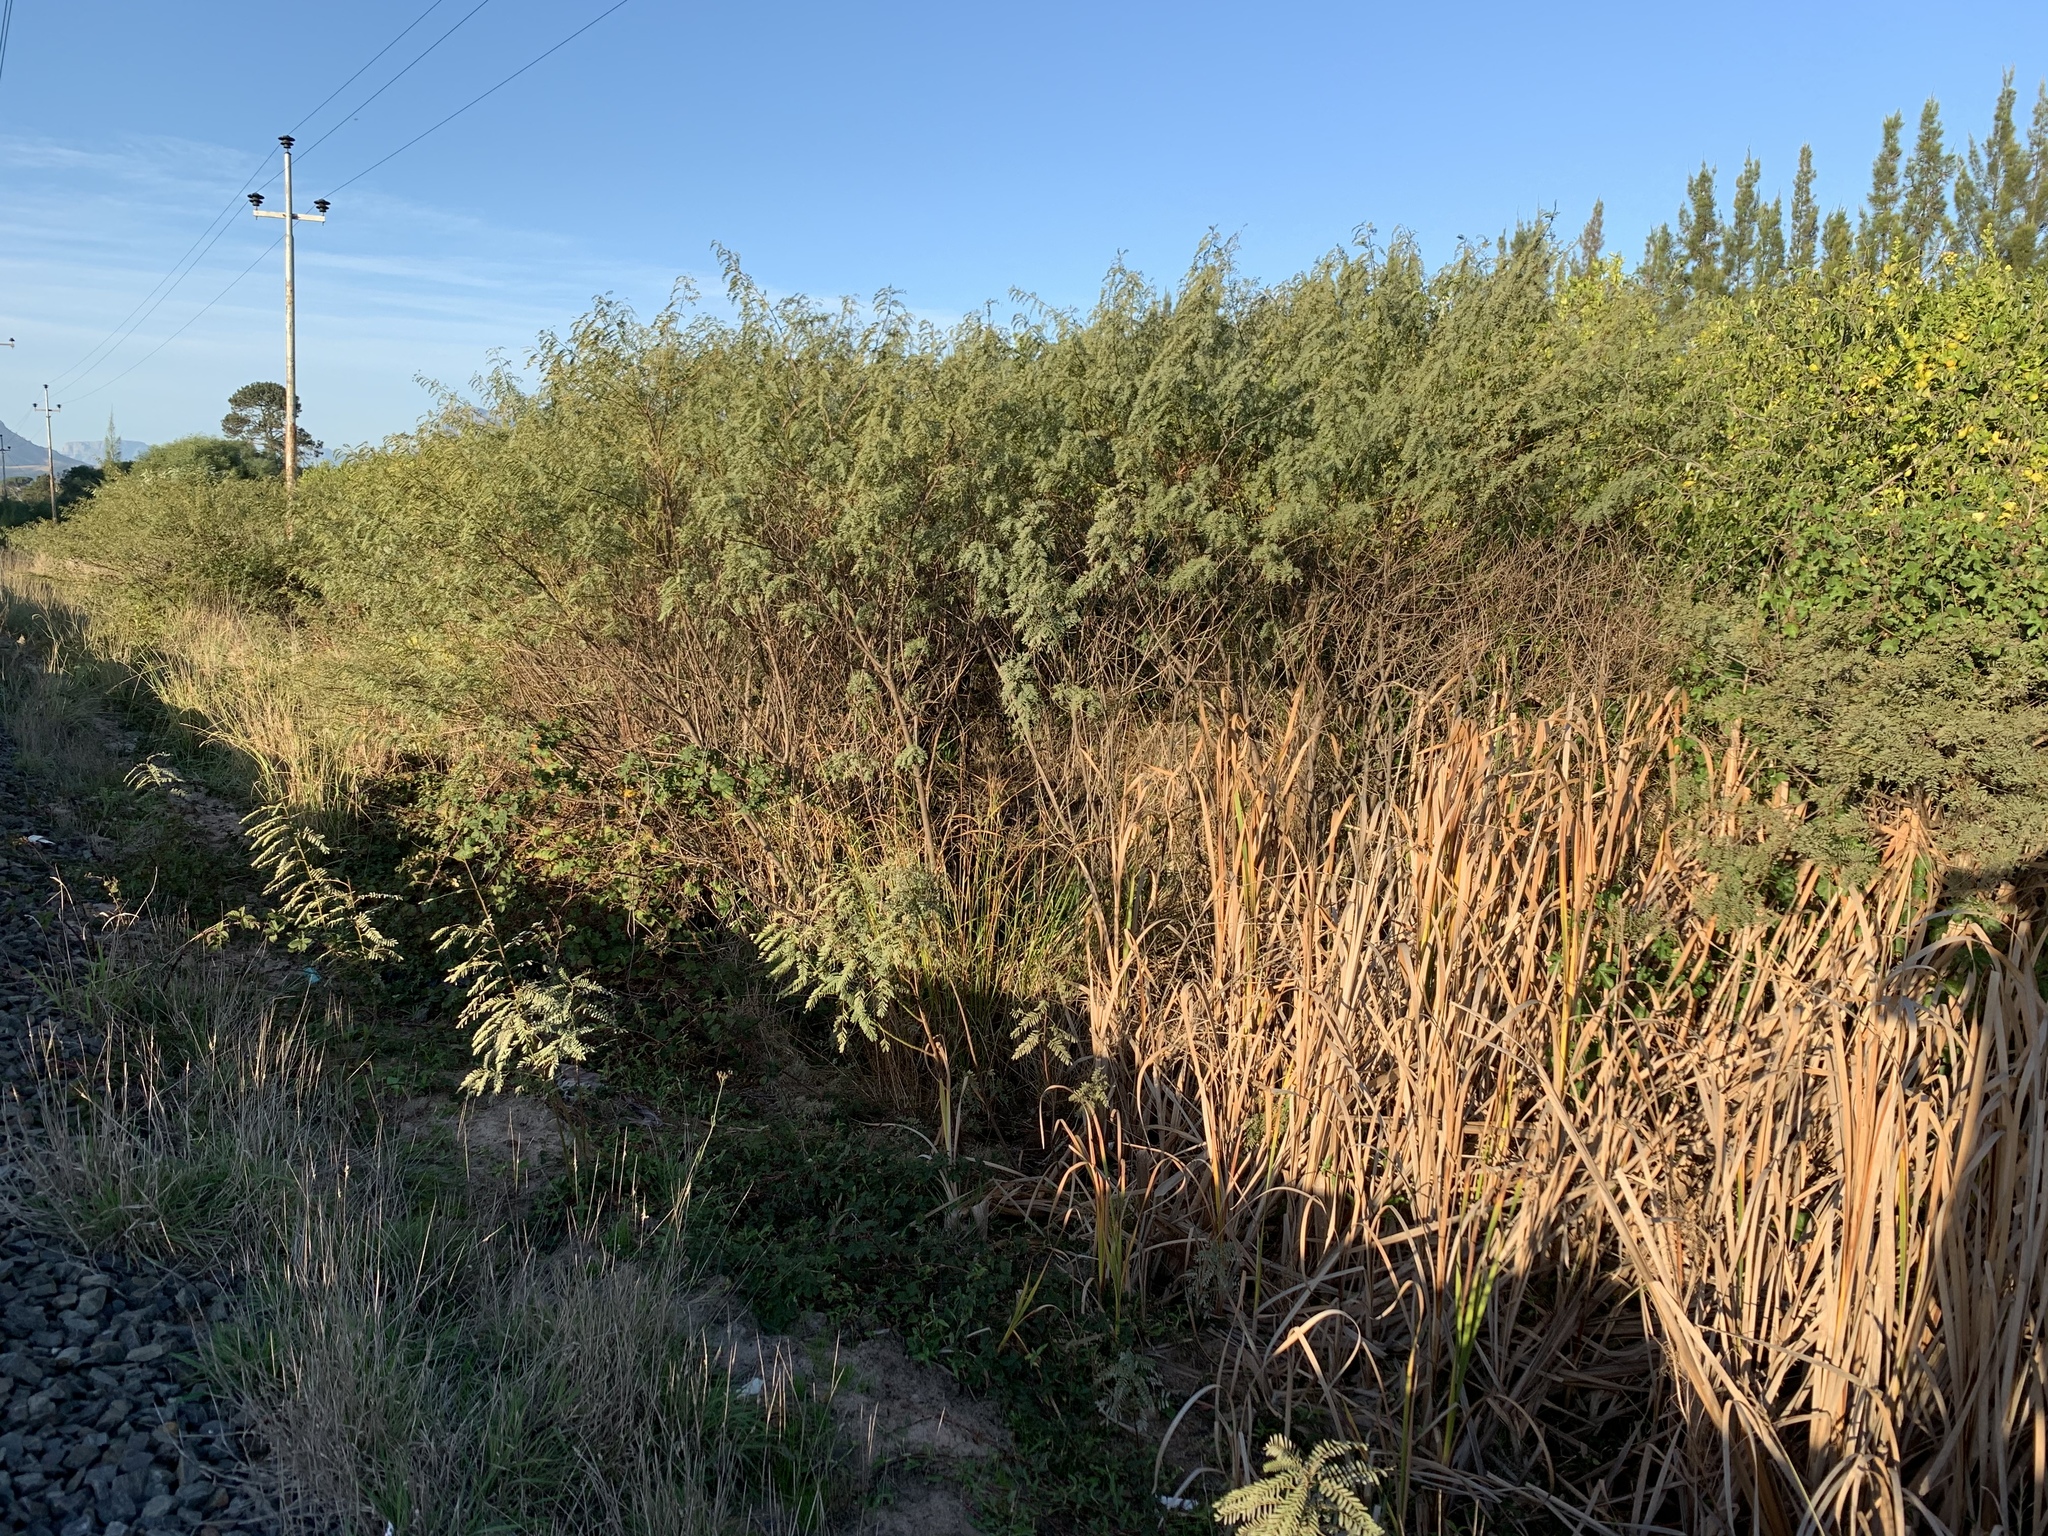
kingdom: Plantae
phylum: Tracheophyta
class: Magnoliopsida
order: Fabales
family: Fabaceae
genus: Sesbania
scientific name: Sesbania punicea
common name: Rattlebox
